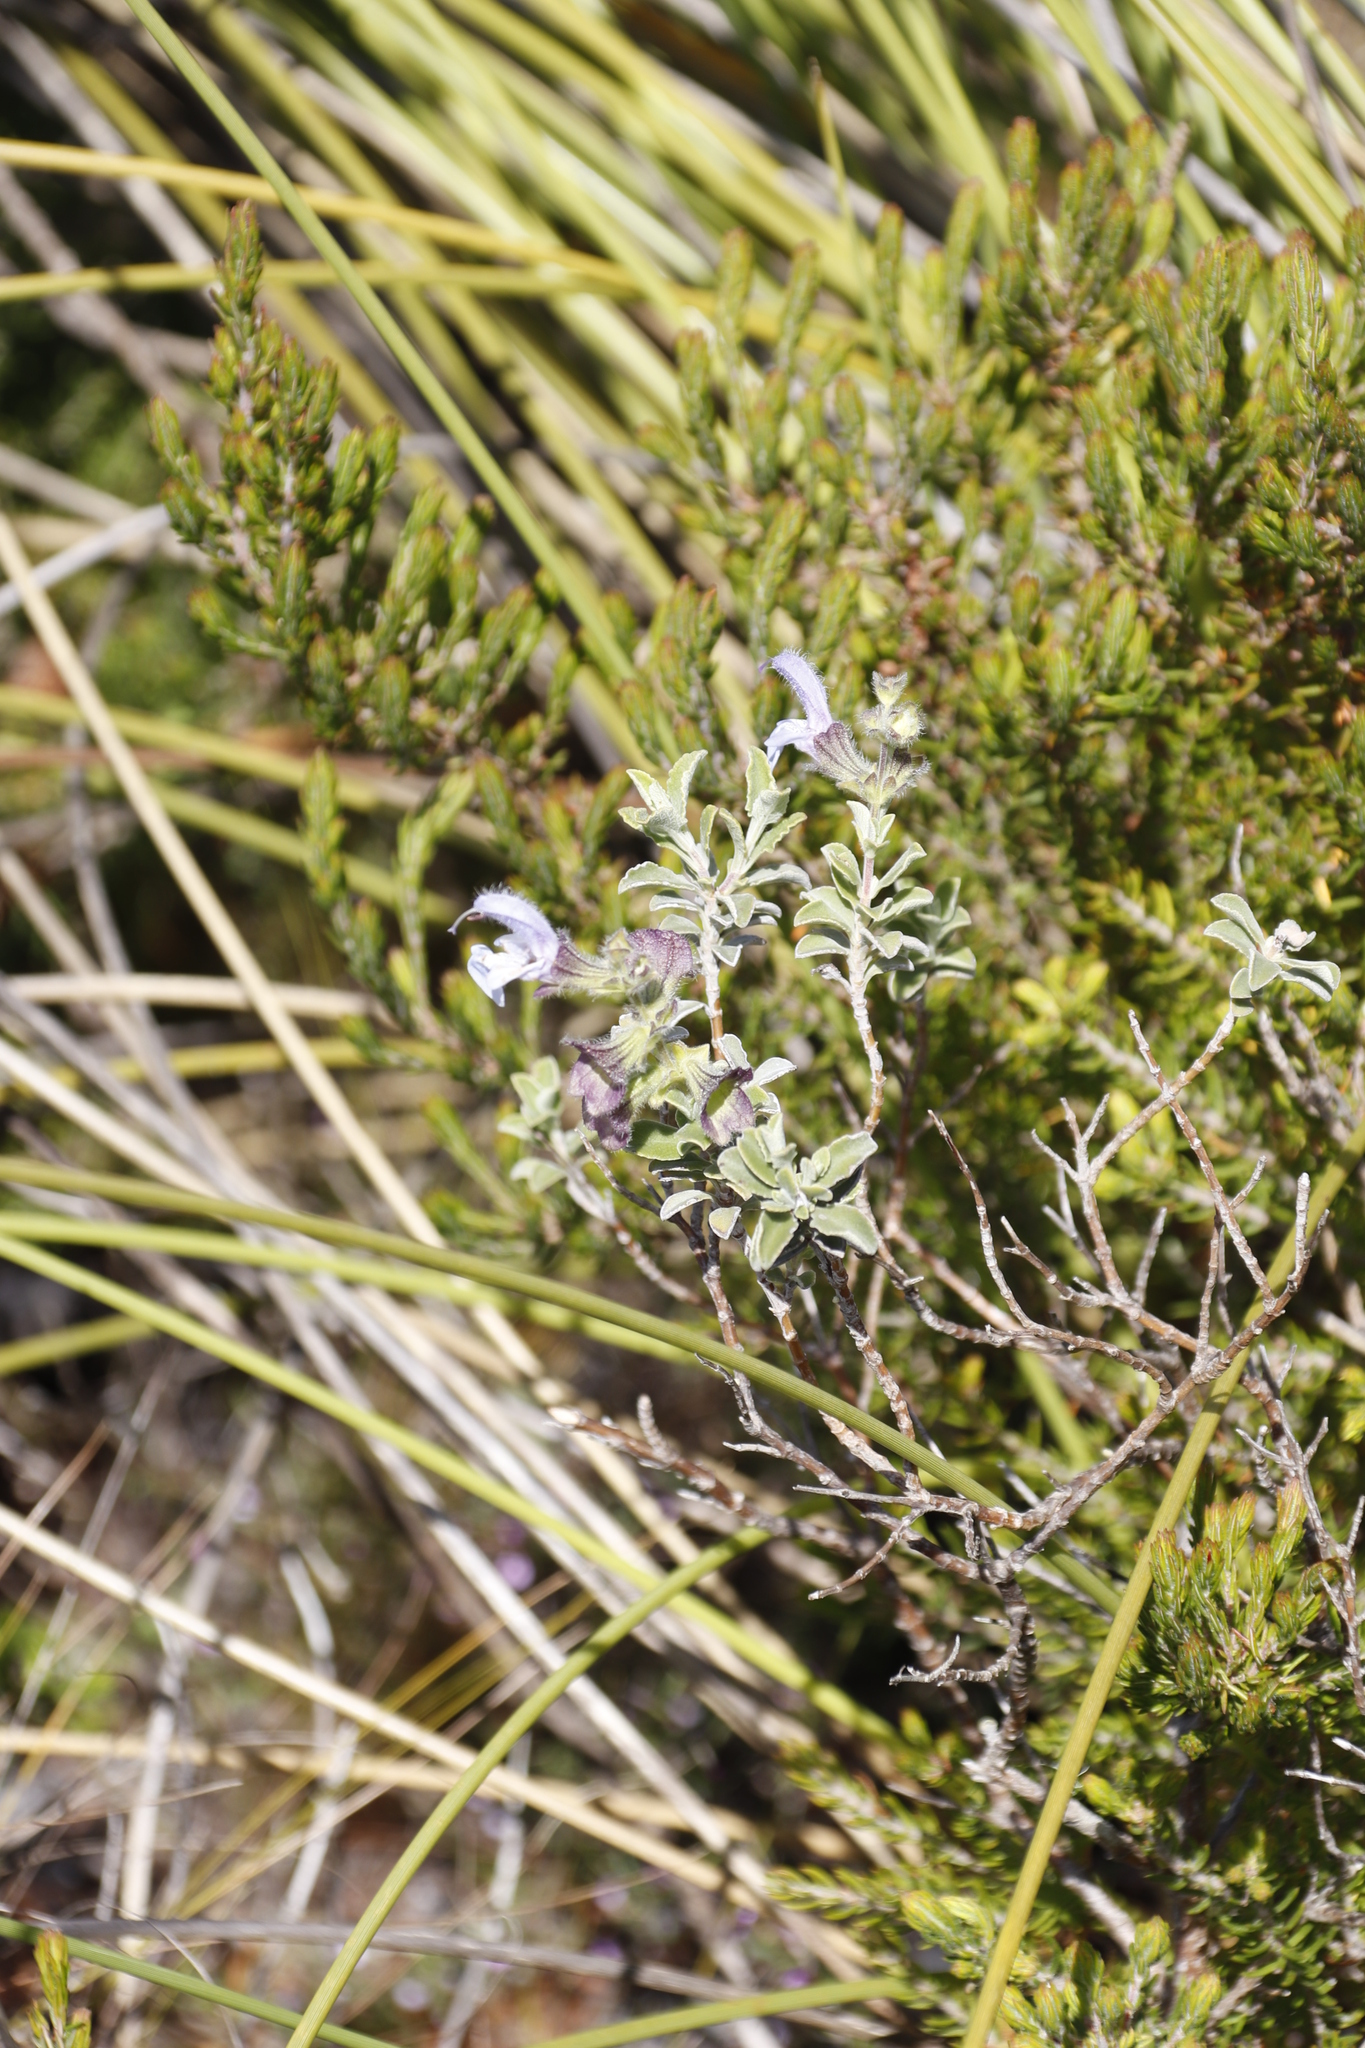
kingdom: Plantae
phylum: Tracheophyta
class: Magnoliopsida
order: Lamiales
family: Lamiaceae
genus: Salvia
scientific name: Salvia africana
